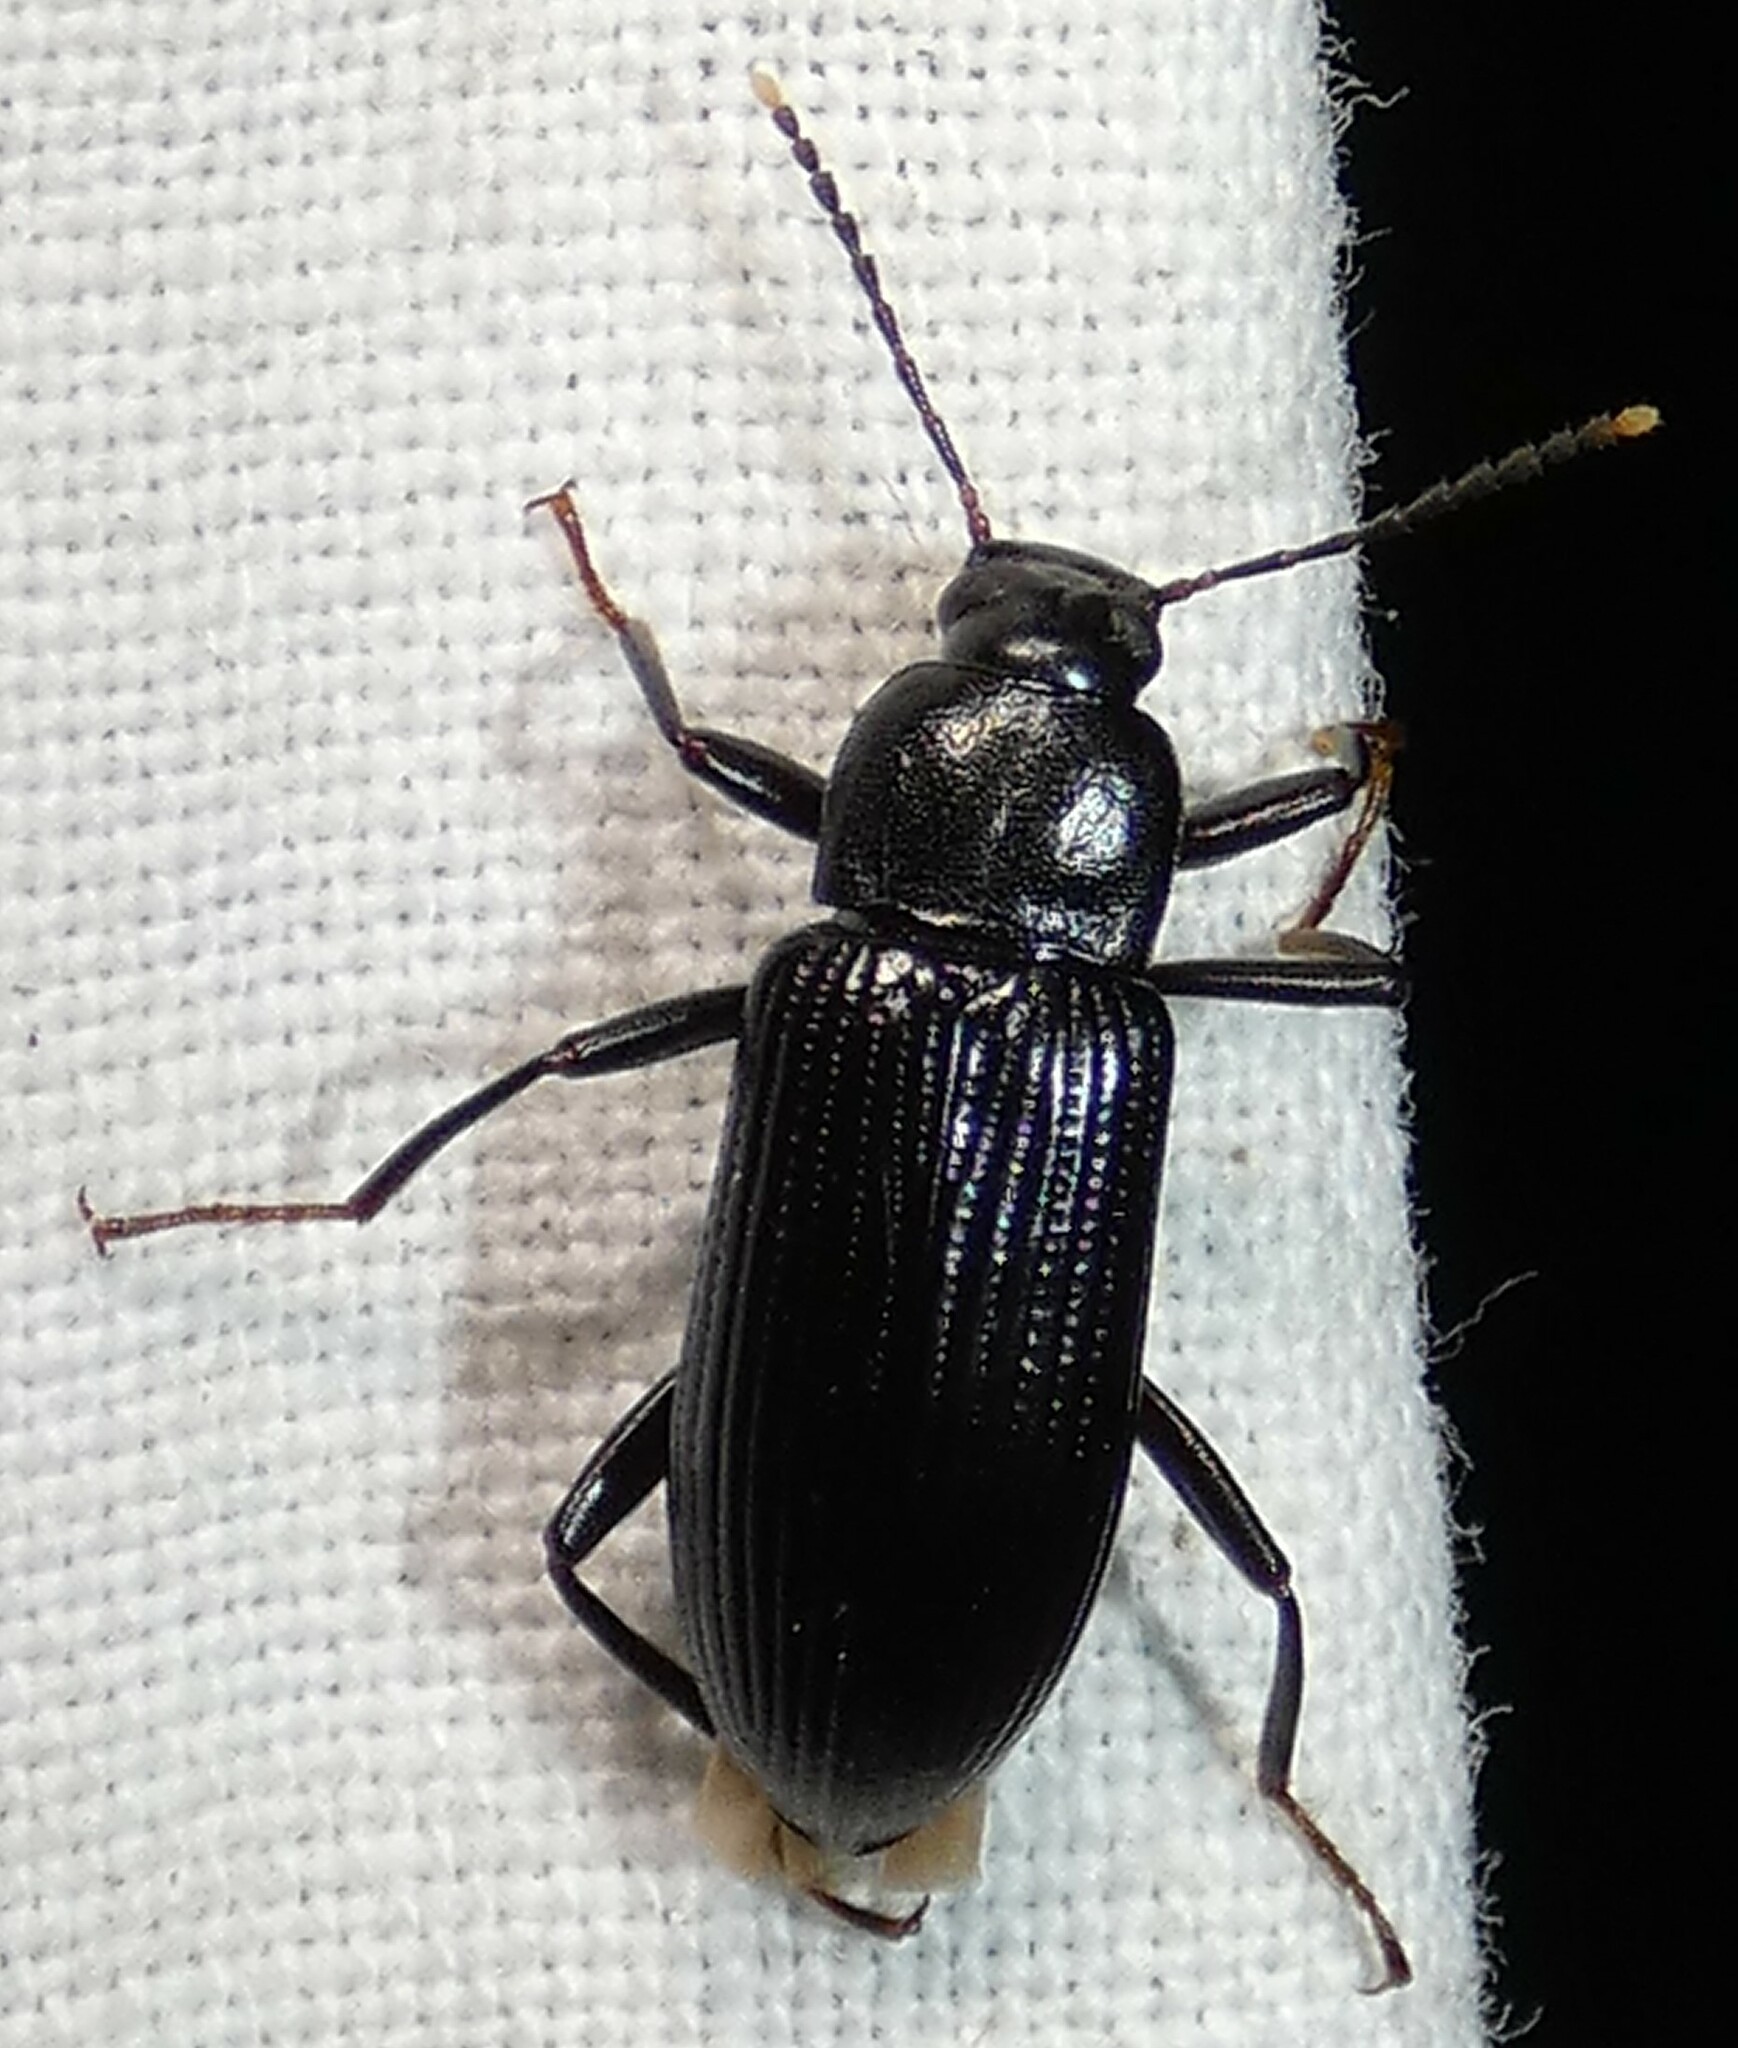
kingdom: Animalia
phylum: Arthropoda
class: Insecta
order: Coleoptera
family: Tenebrionidae
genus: Strongylium
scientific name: Strongylium terminatum
